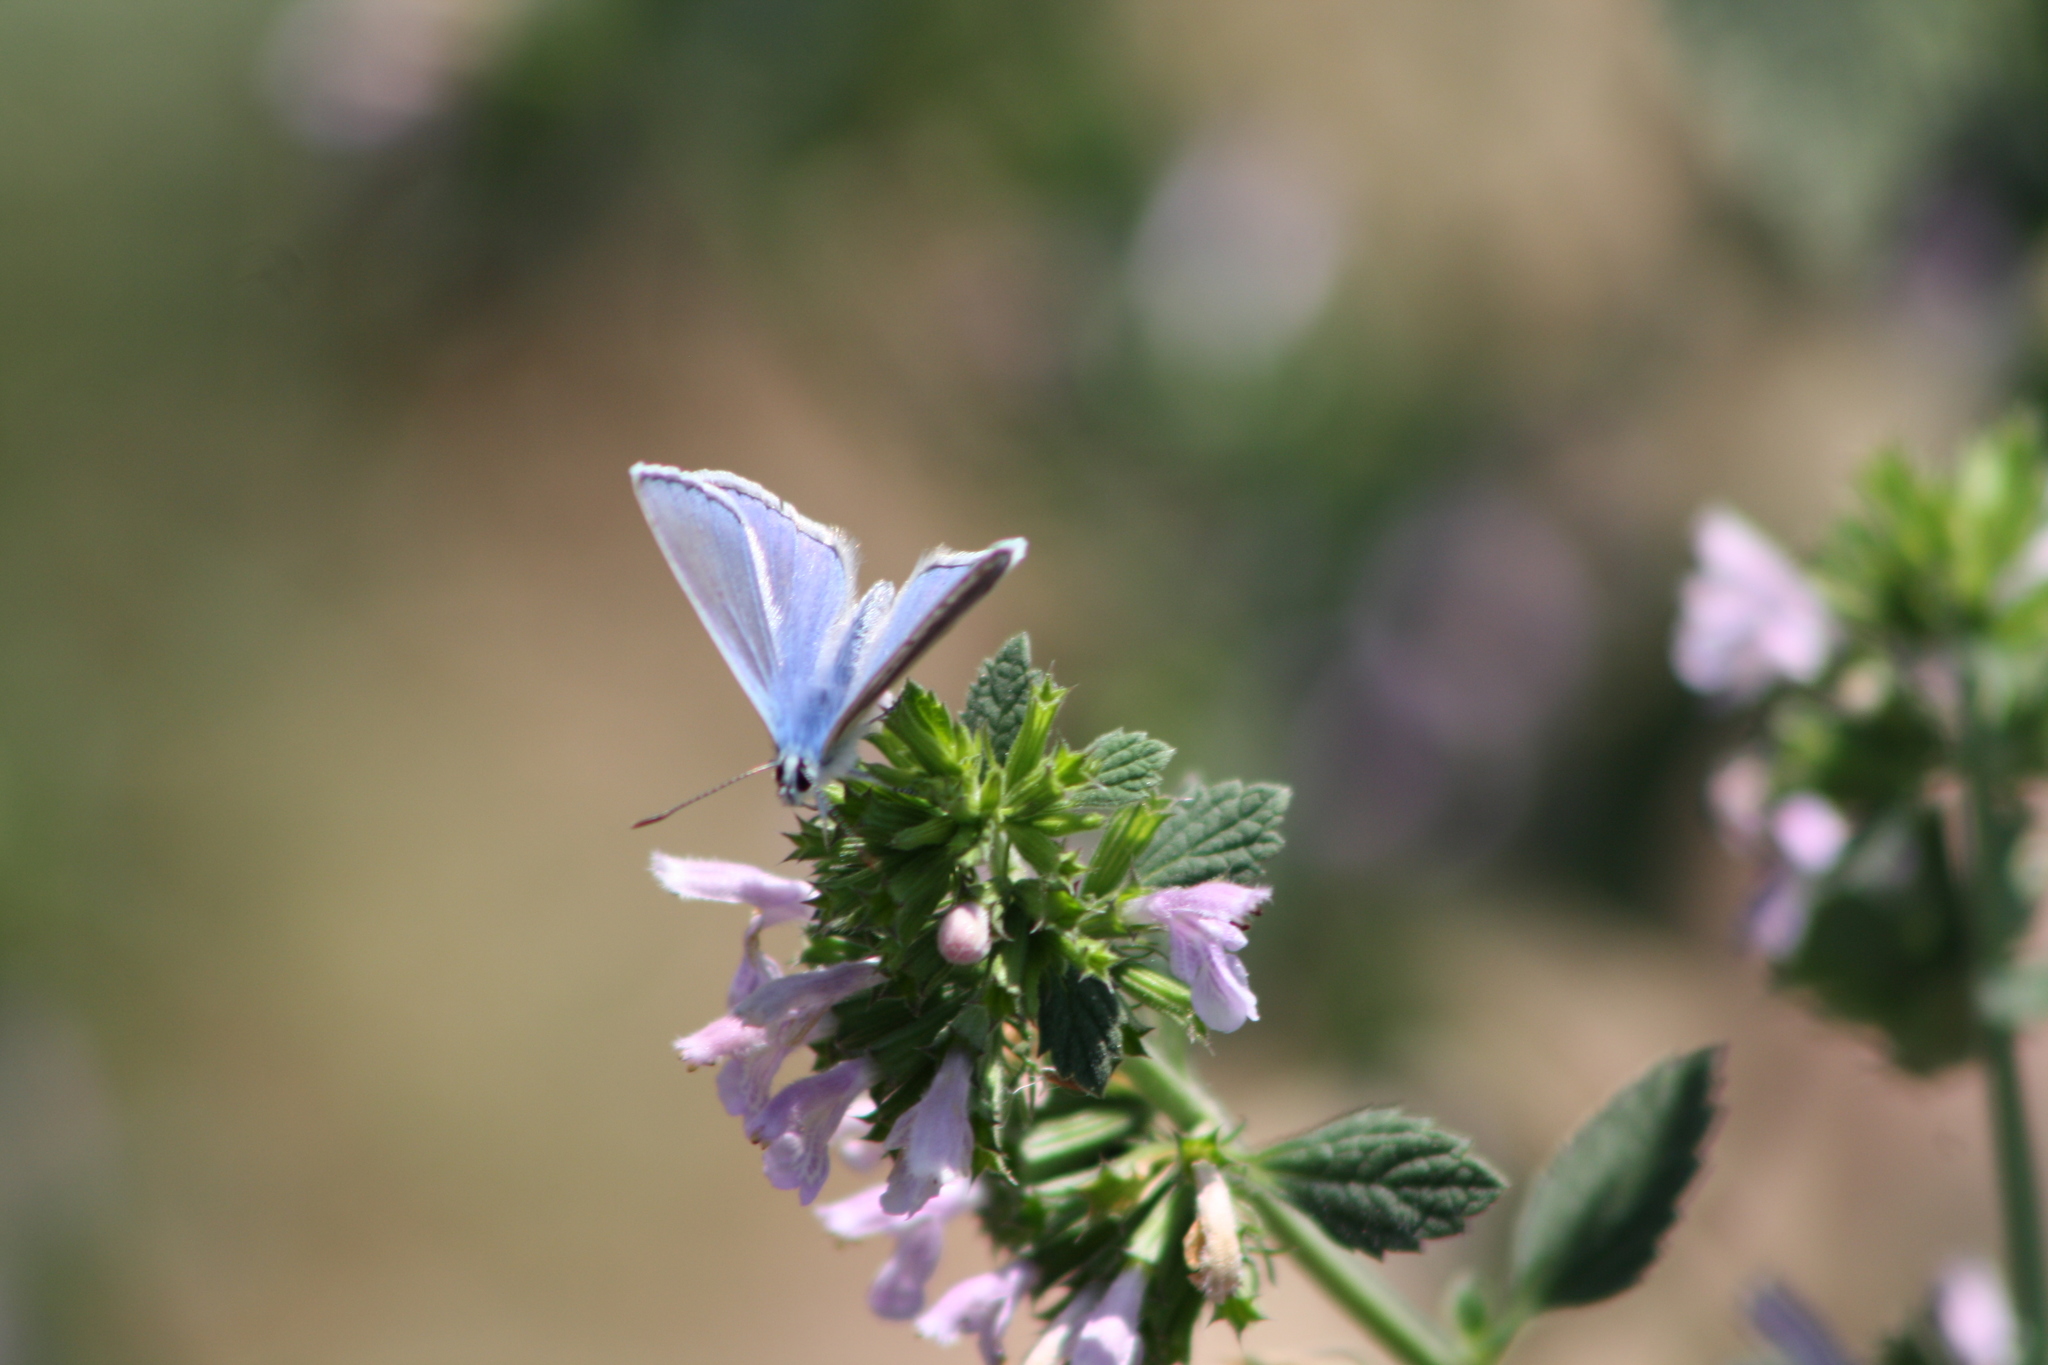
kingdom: Animalia
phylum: Arthropoda
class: Insecta
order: Lepidoptera
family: Lycaenidae
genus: Polyommatus
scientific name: Polyommatus icarus
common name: Common blue
